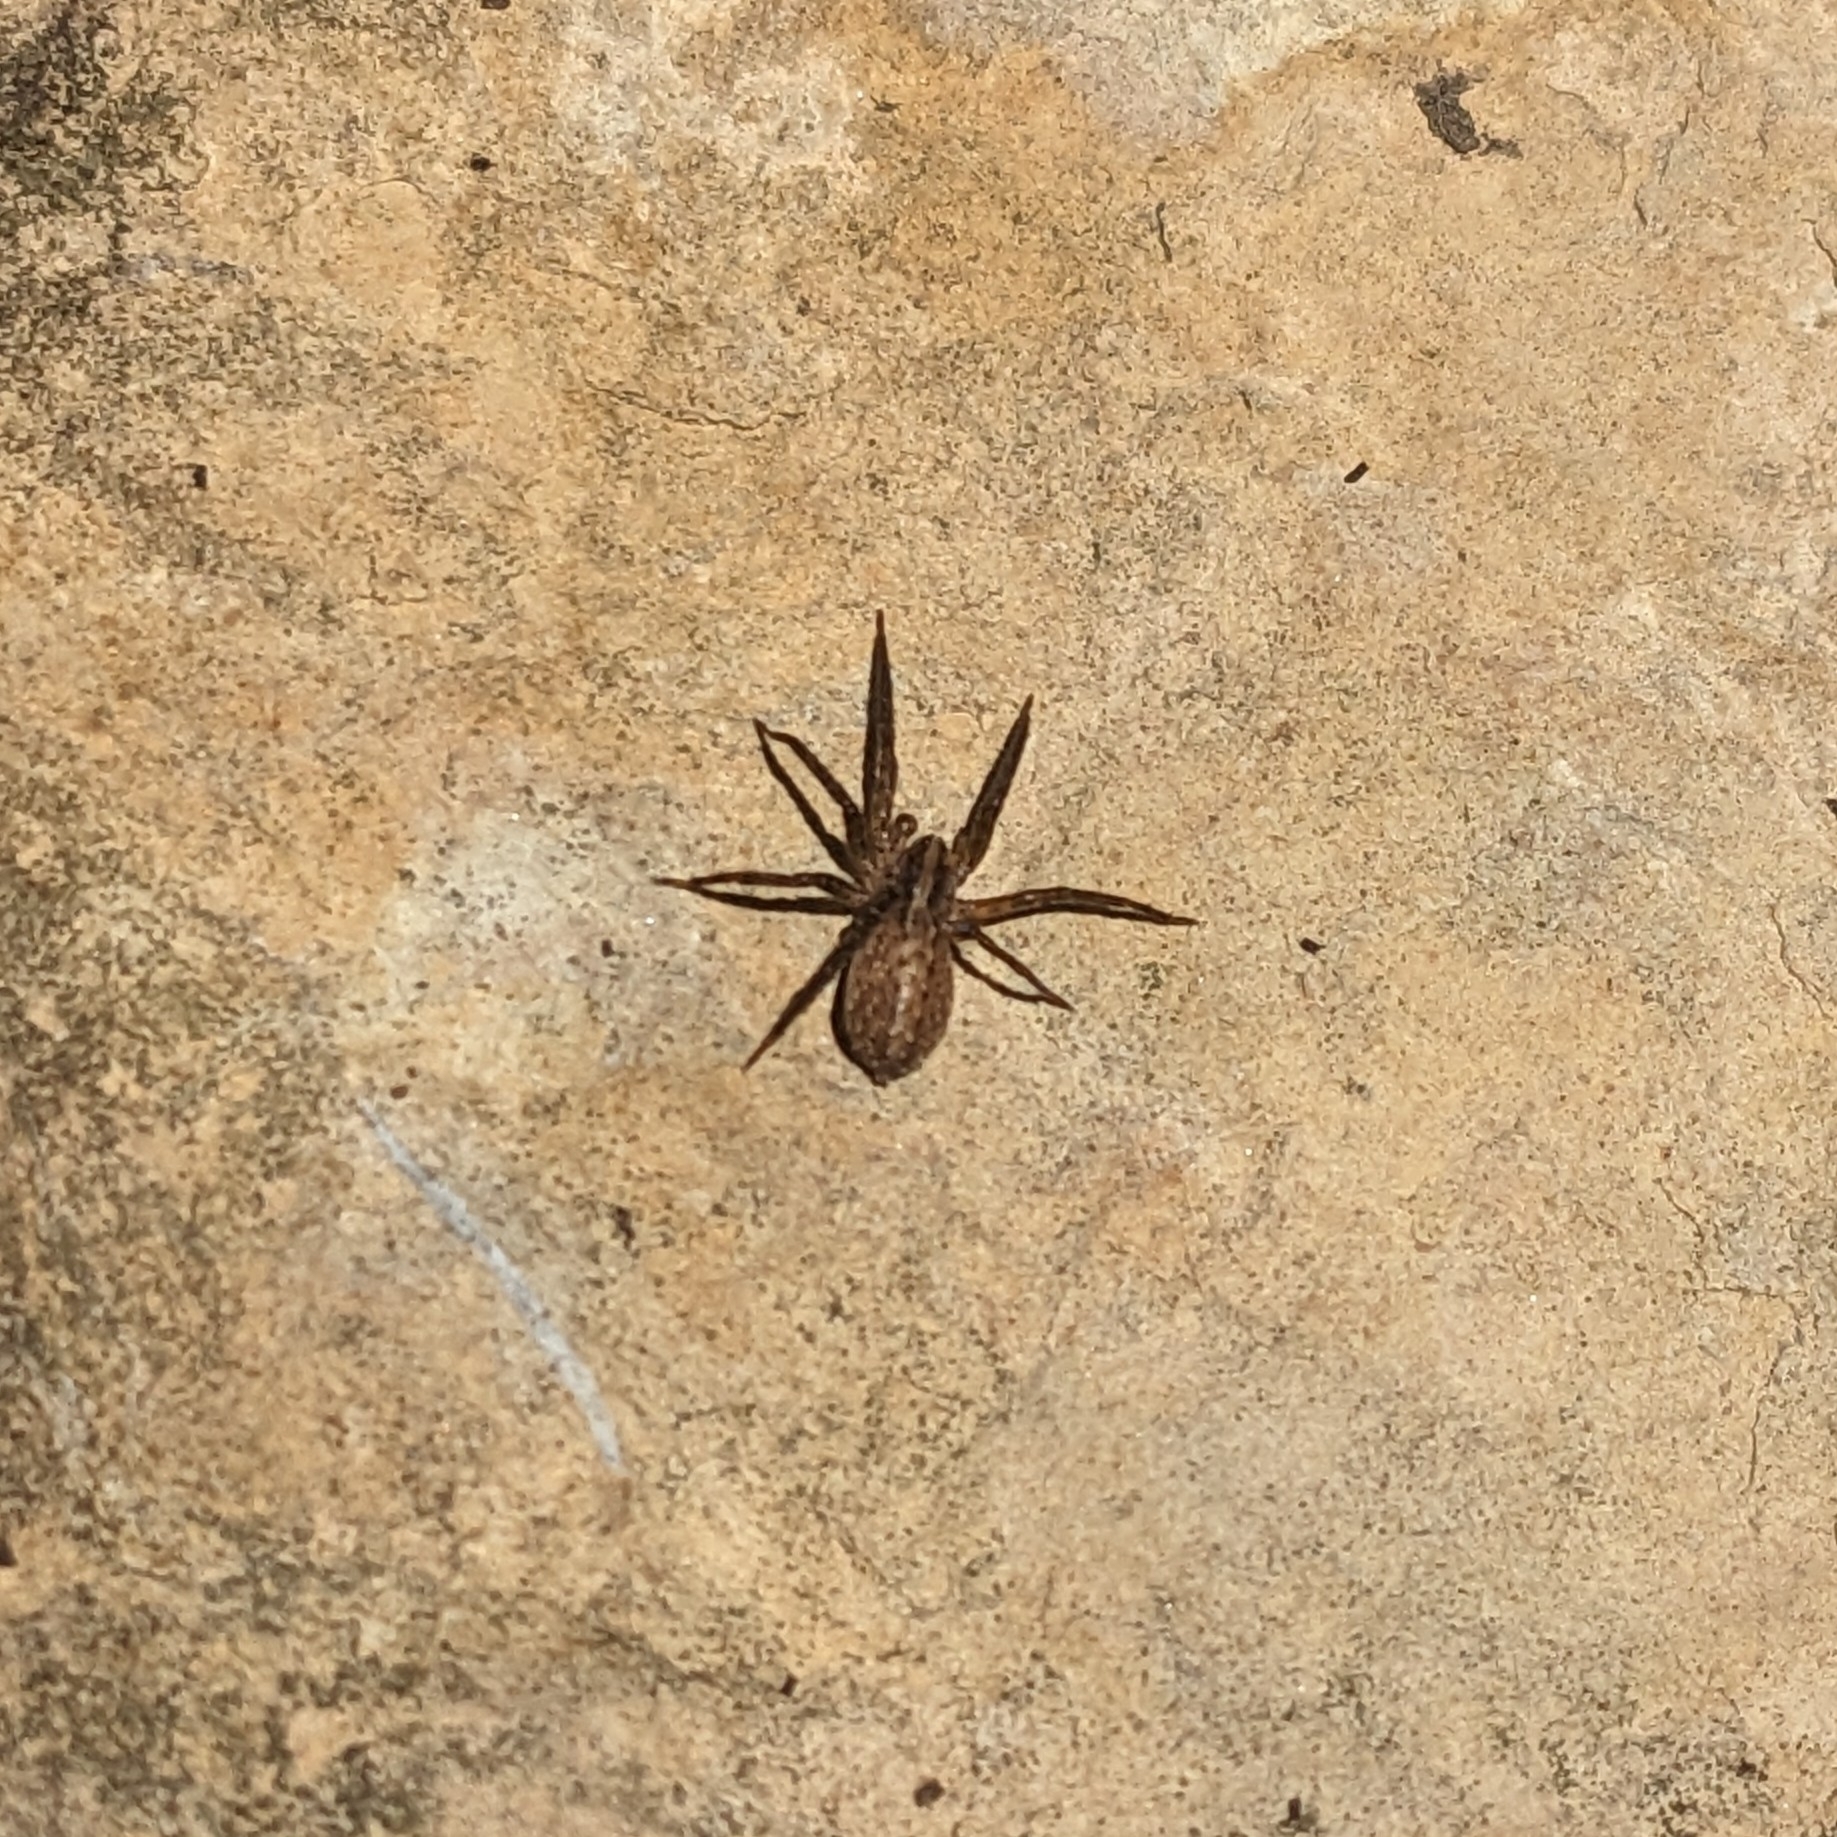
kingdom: Animalia
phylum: Arthropoda
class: Arachnida
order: Araneae
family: Ctenidae
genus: Anahita
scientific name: Anahita punctulata
